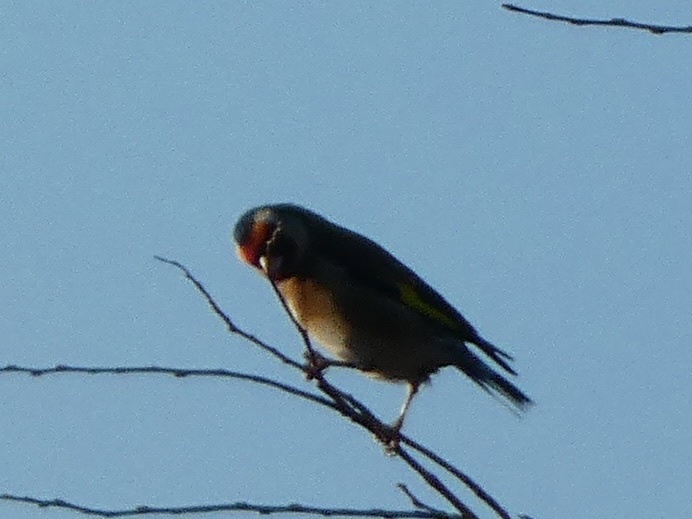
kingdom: Animalia
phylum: Chordata
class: Aves
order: Passeriformes
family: Fringillidae
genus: Carduelis
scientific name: Carduelis carduelis
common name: European goldfinch
